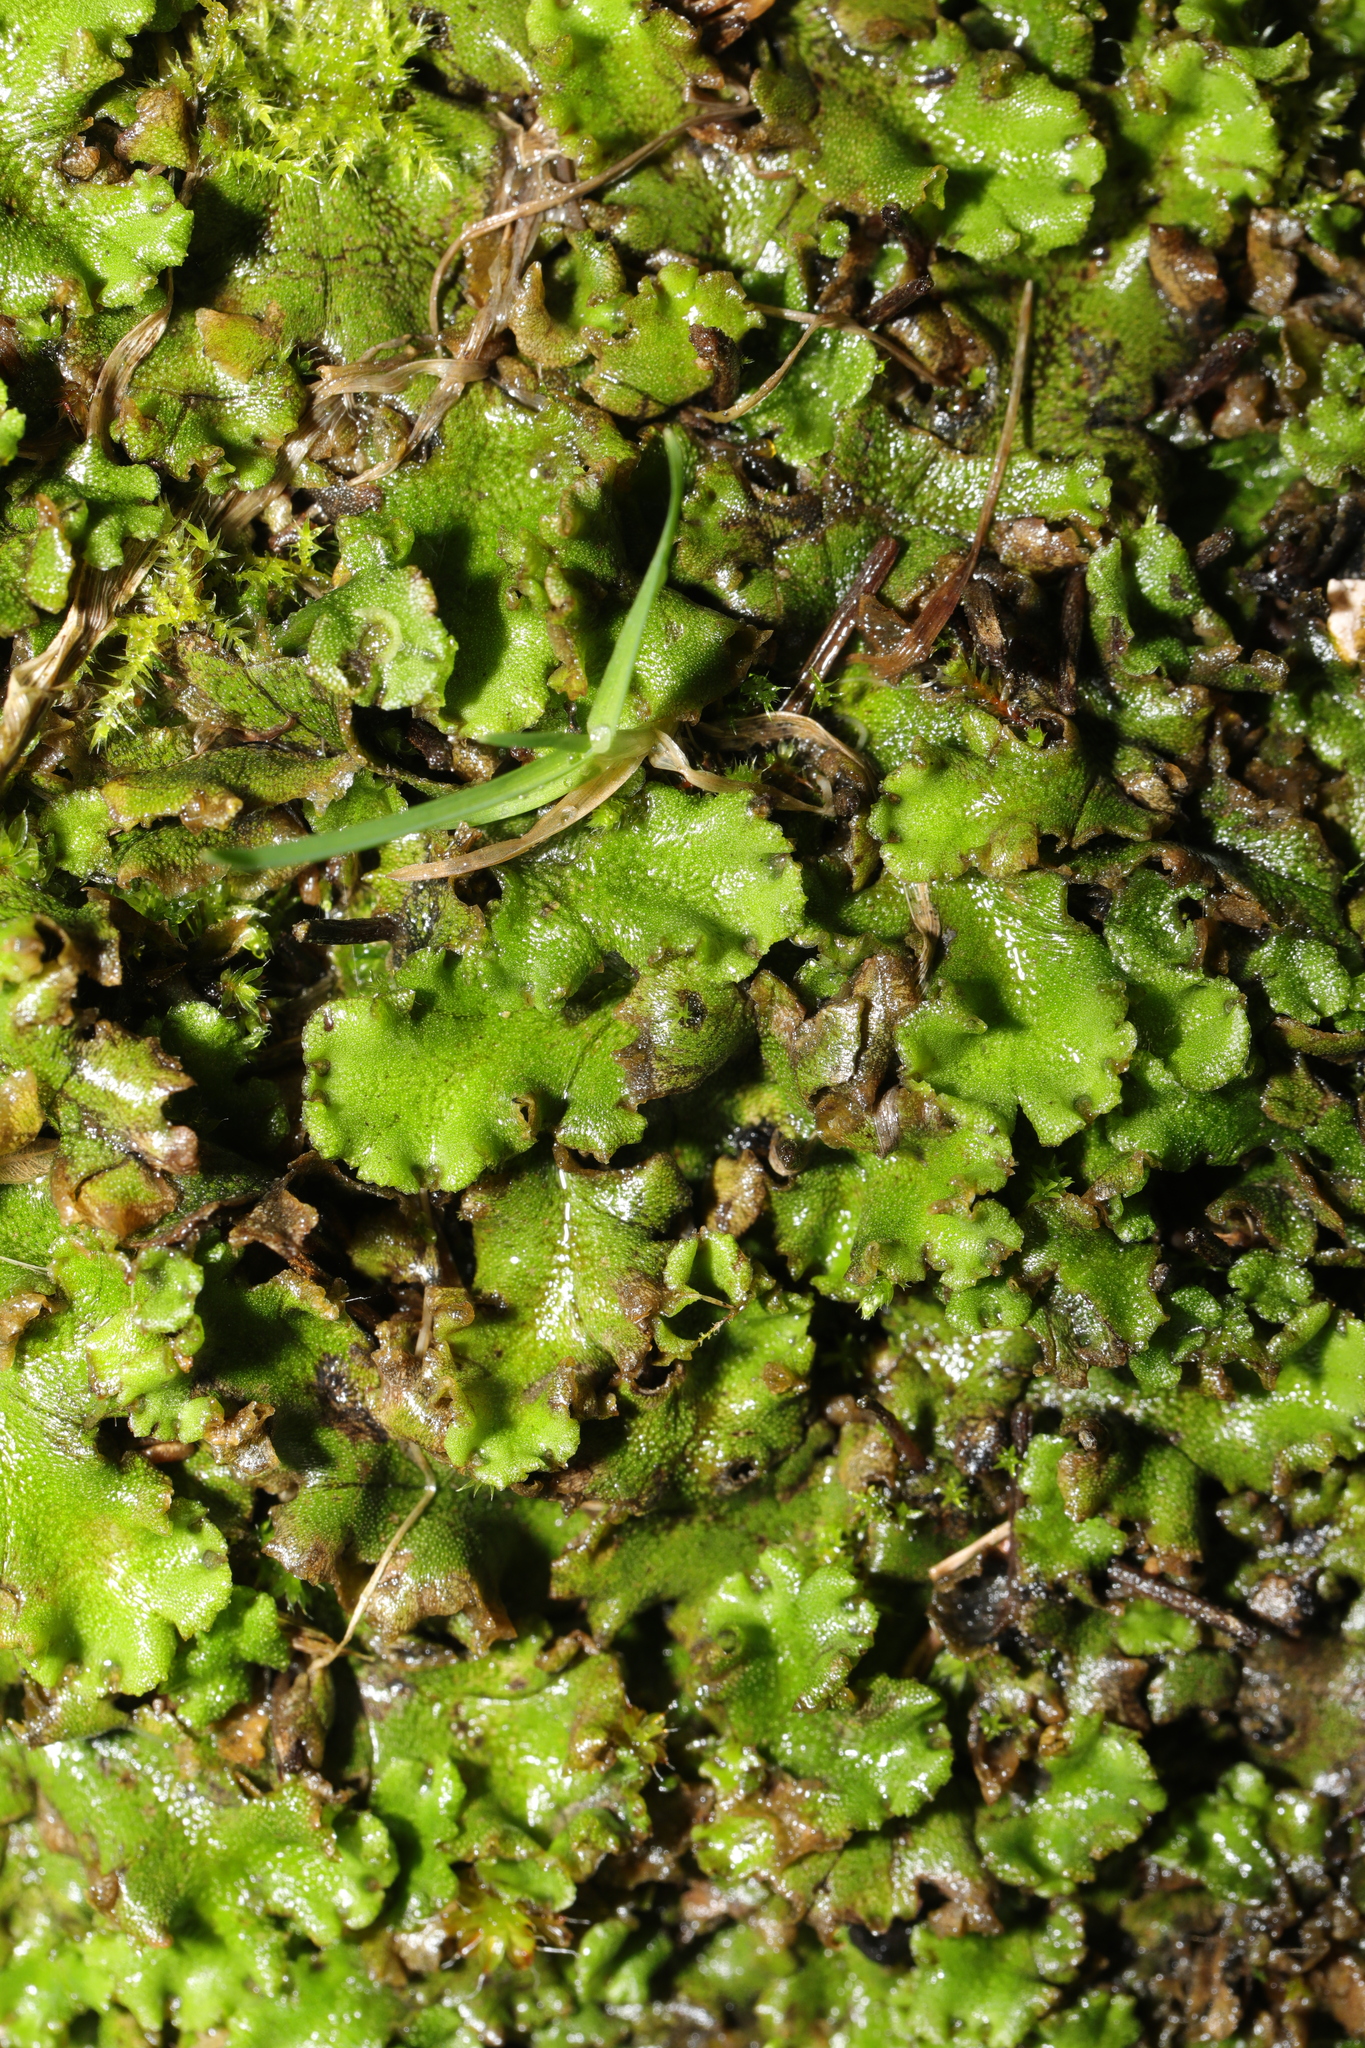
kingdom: Plantae
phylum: Marchantiophyta
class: Marchantiopsida
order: Marchantiales
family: Marchantiaceae
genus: Marchantia
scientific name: Marchantia polymorpha
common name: Common liverwort
